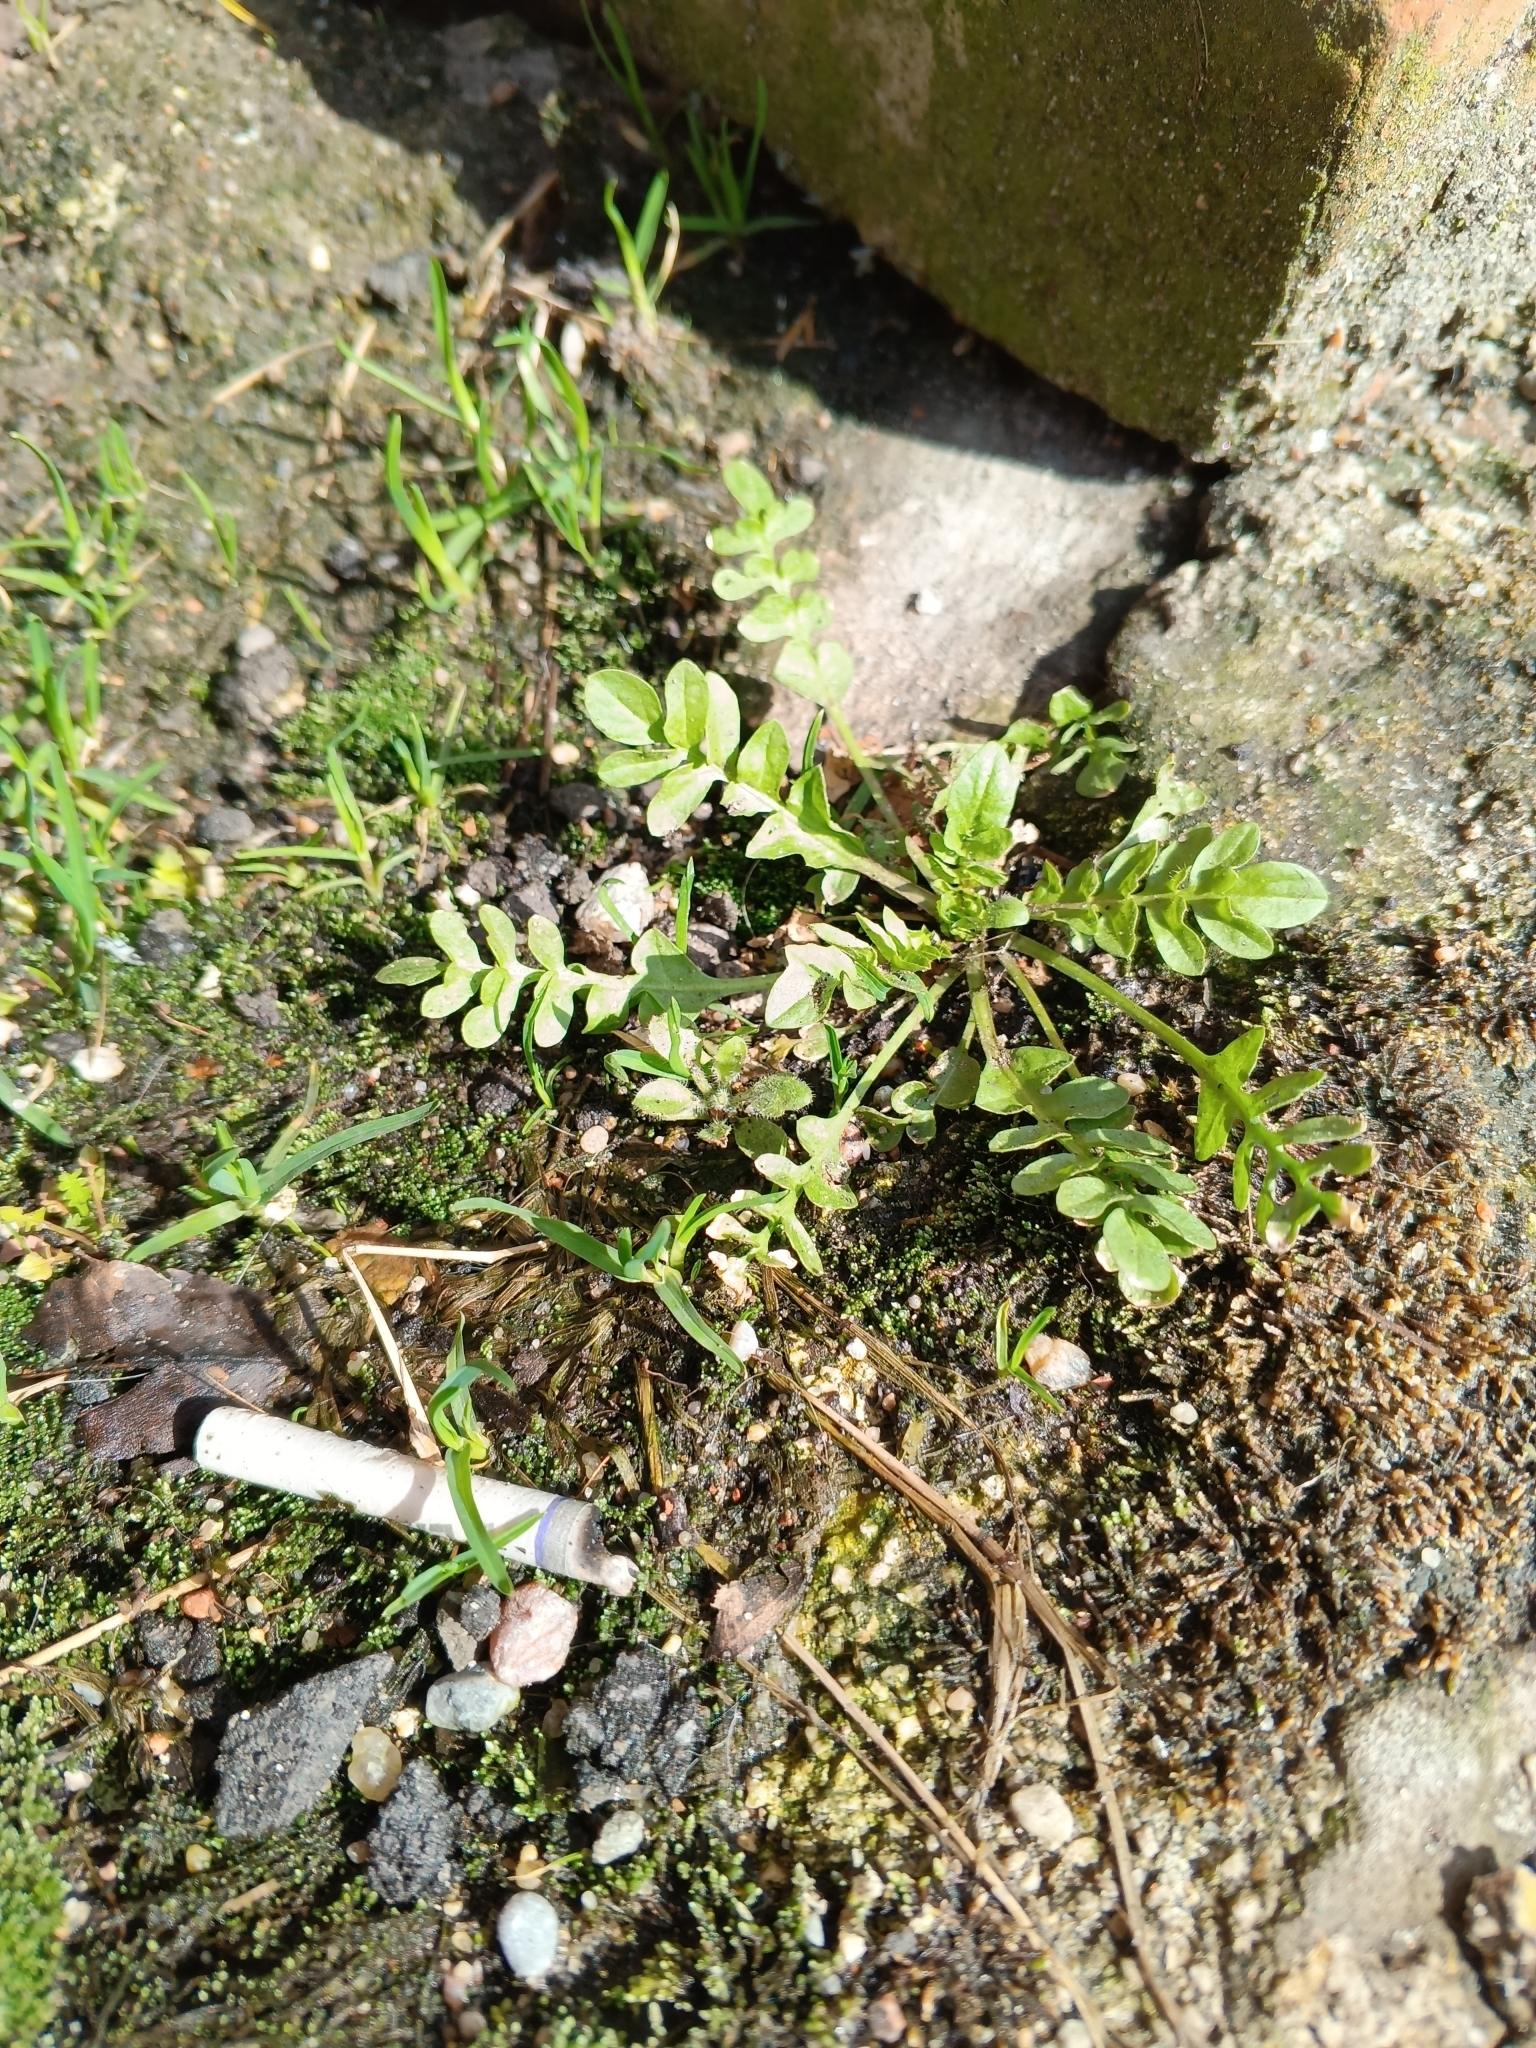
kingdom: Plantae
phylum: Tracheophyta
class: Magnoliopsida
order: Brassicales
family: Brassicaceae
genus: Capsella
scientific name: Capsella bursa-pastoris
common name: Shepherd's purse
